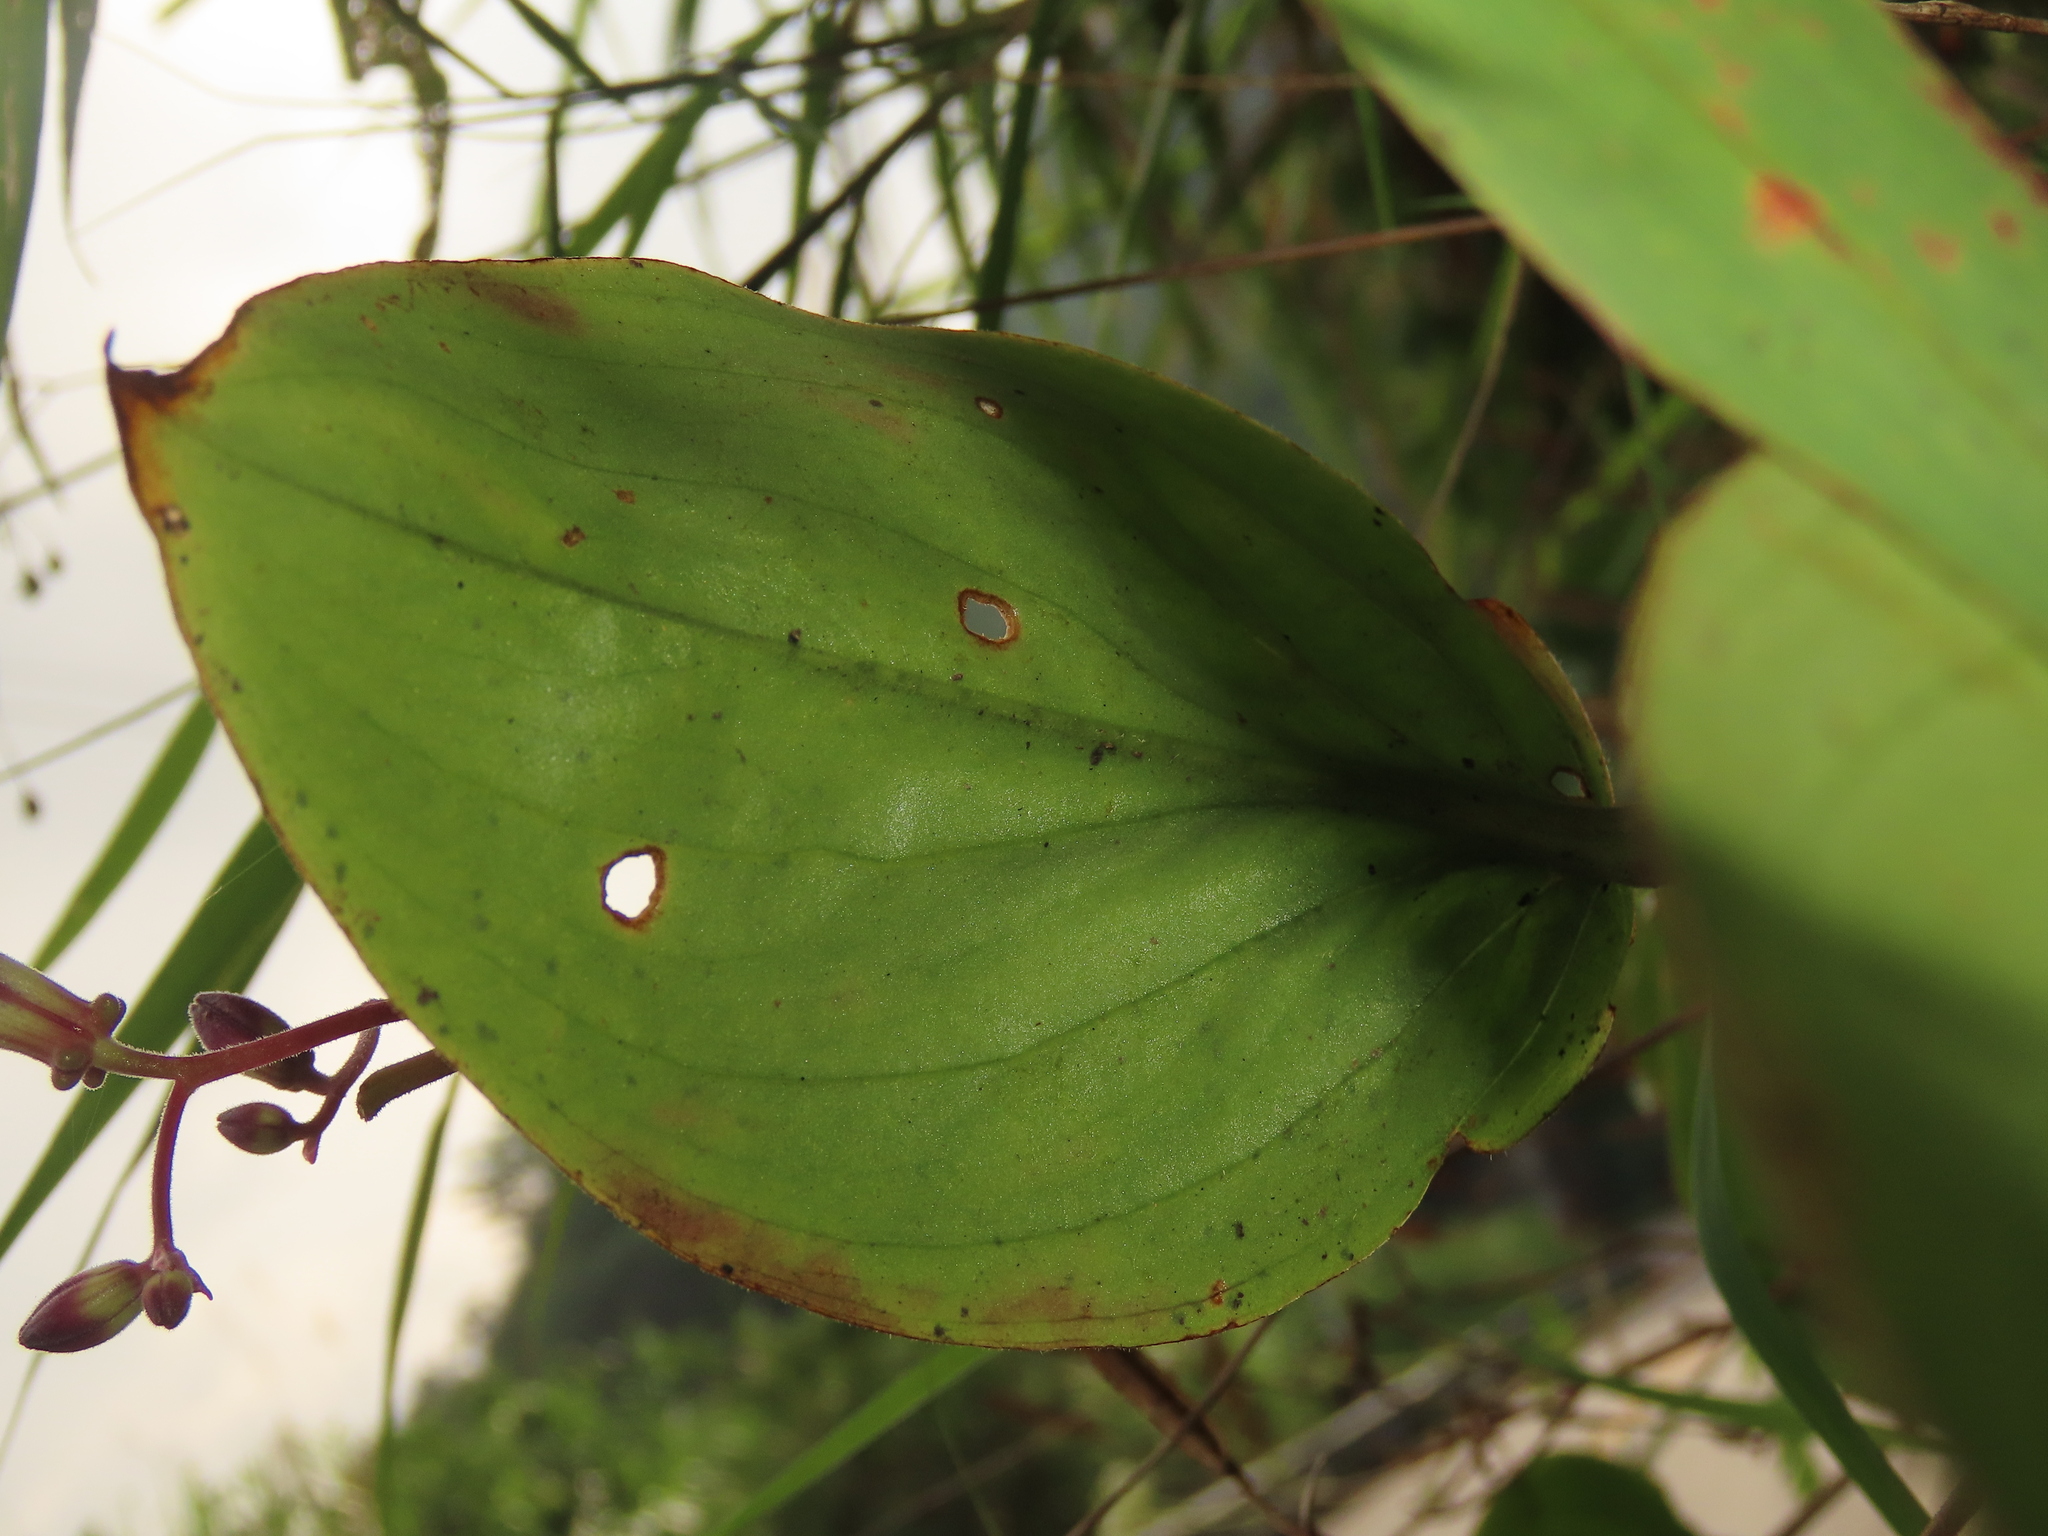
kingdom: Plantae
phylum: Tracheophyta
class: Liliopsida
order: Liliales
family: Liliaceae
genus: Tricyrtis
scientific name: Tricyrtis lasiocarpa
